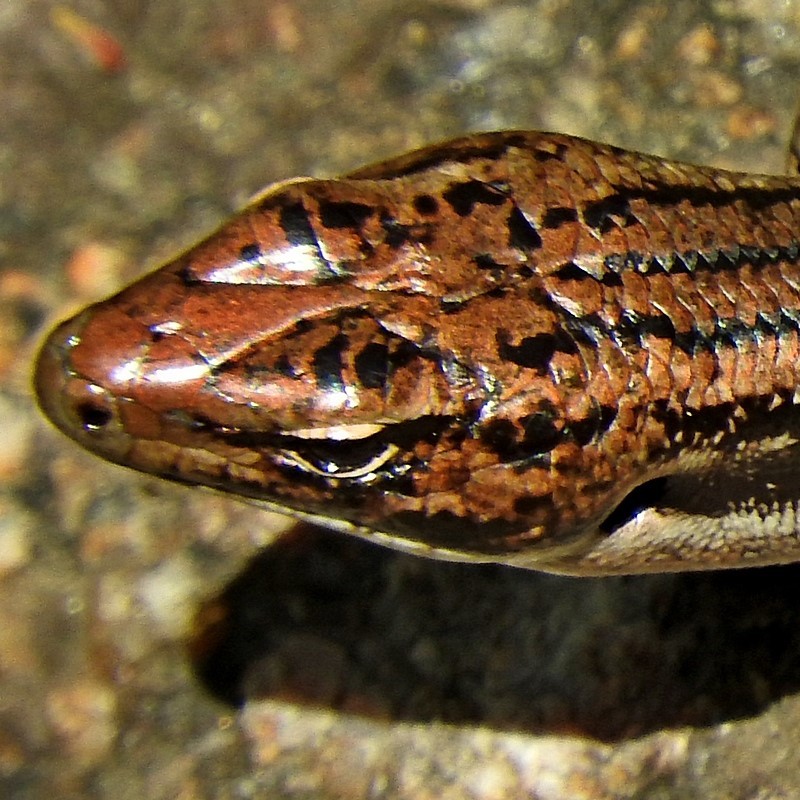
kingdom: Animalia
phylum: Chordata
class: Squamata
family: Scincidae
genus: Eulamprus
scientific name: Eulamprus tympanum
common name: Cool-temperate water-skink
